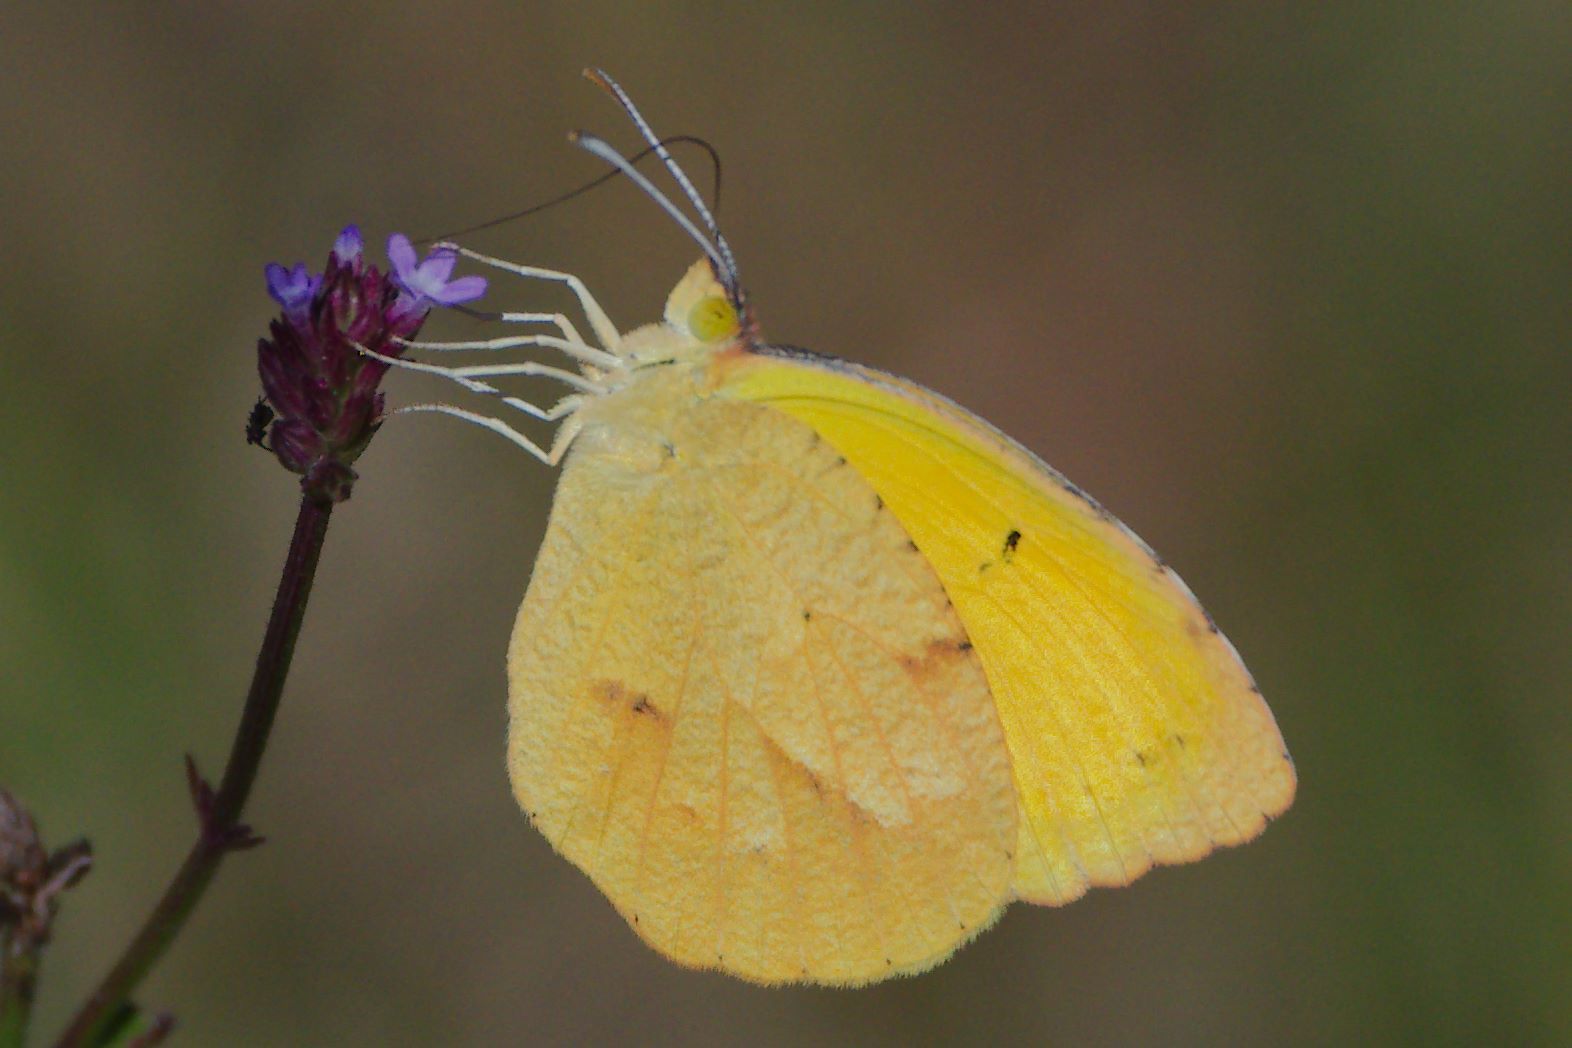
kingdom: Animalia
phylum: Arthropoda
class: Insecta
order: Lepidoptera
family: Pieridae
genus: Abaeis
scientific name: Abaeis nicippe
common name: Sleepy orange
